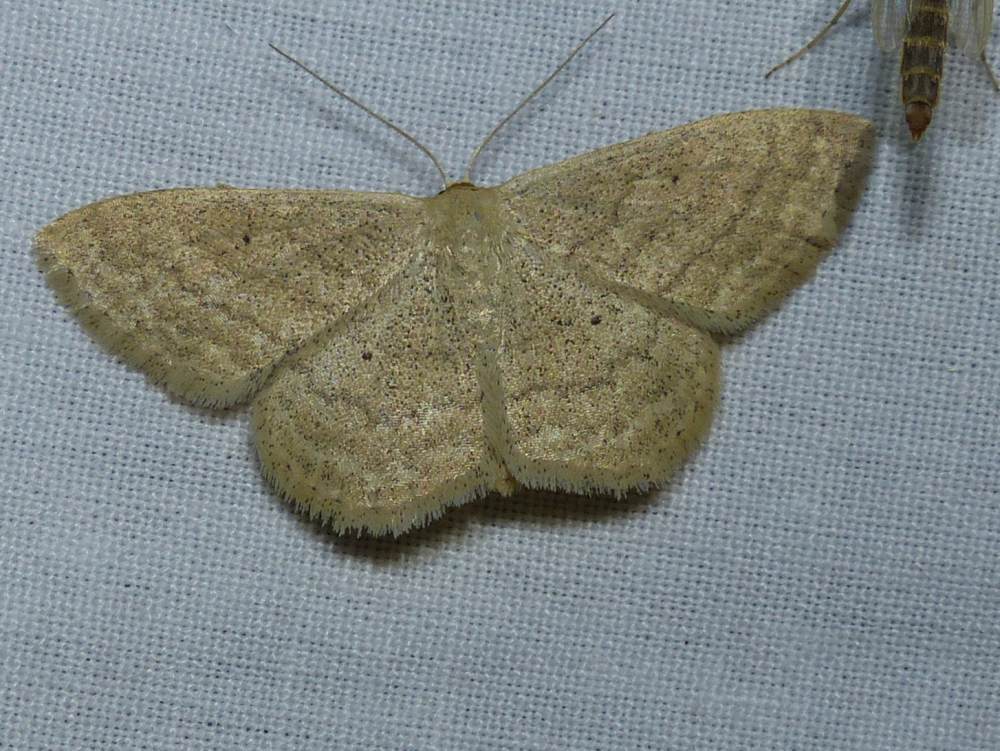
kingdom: Animalia
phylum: Arthropoda
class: Insecta
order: Lepidoptera
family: Geometridae
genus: Scopula
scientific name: Scopula inductata
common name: Soft-lined wave
